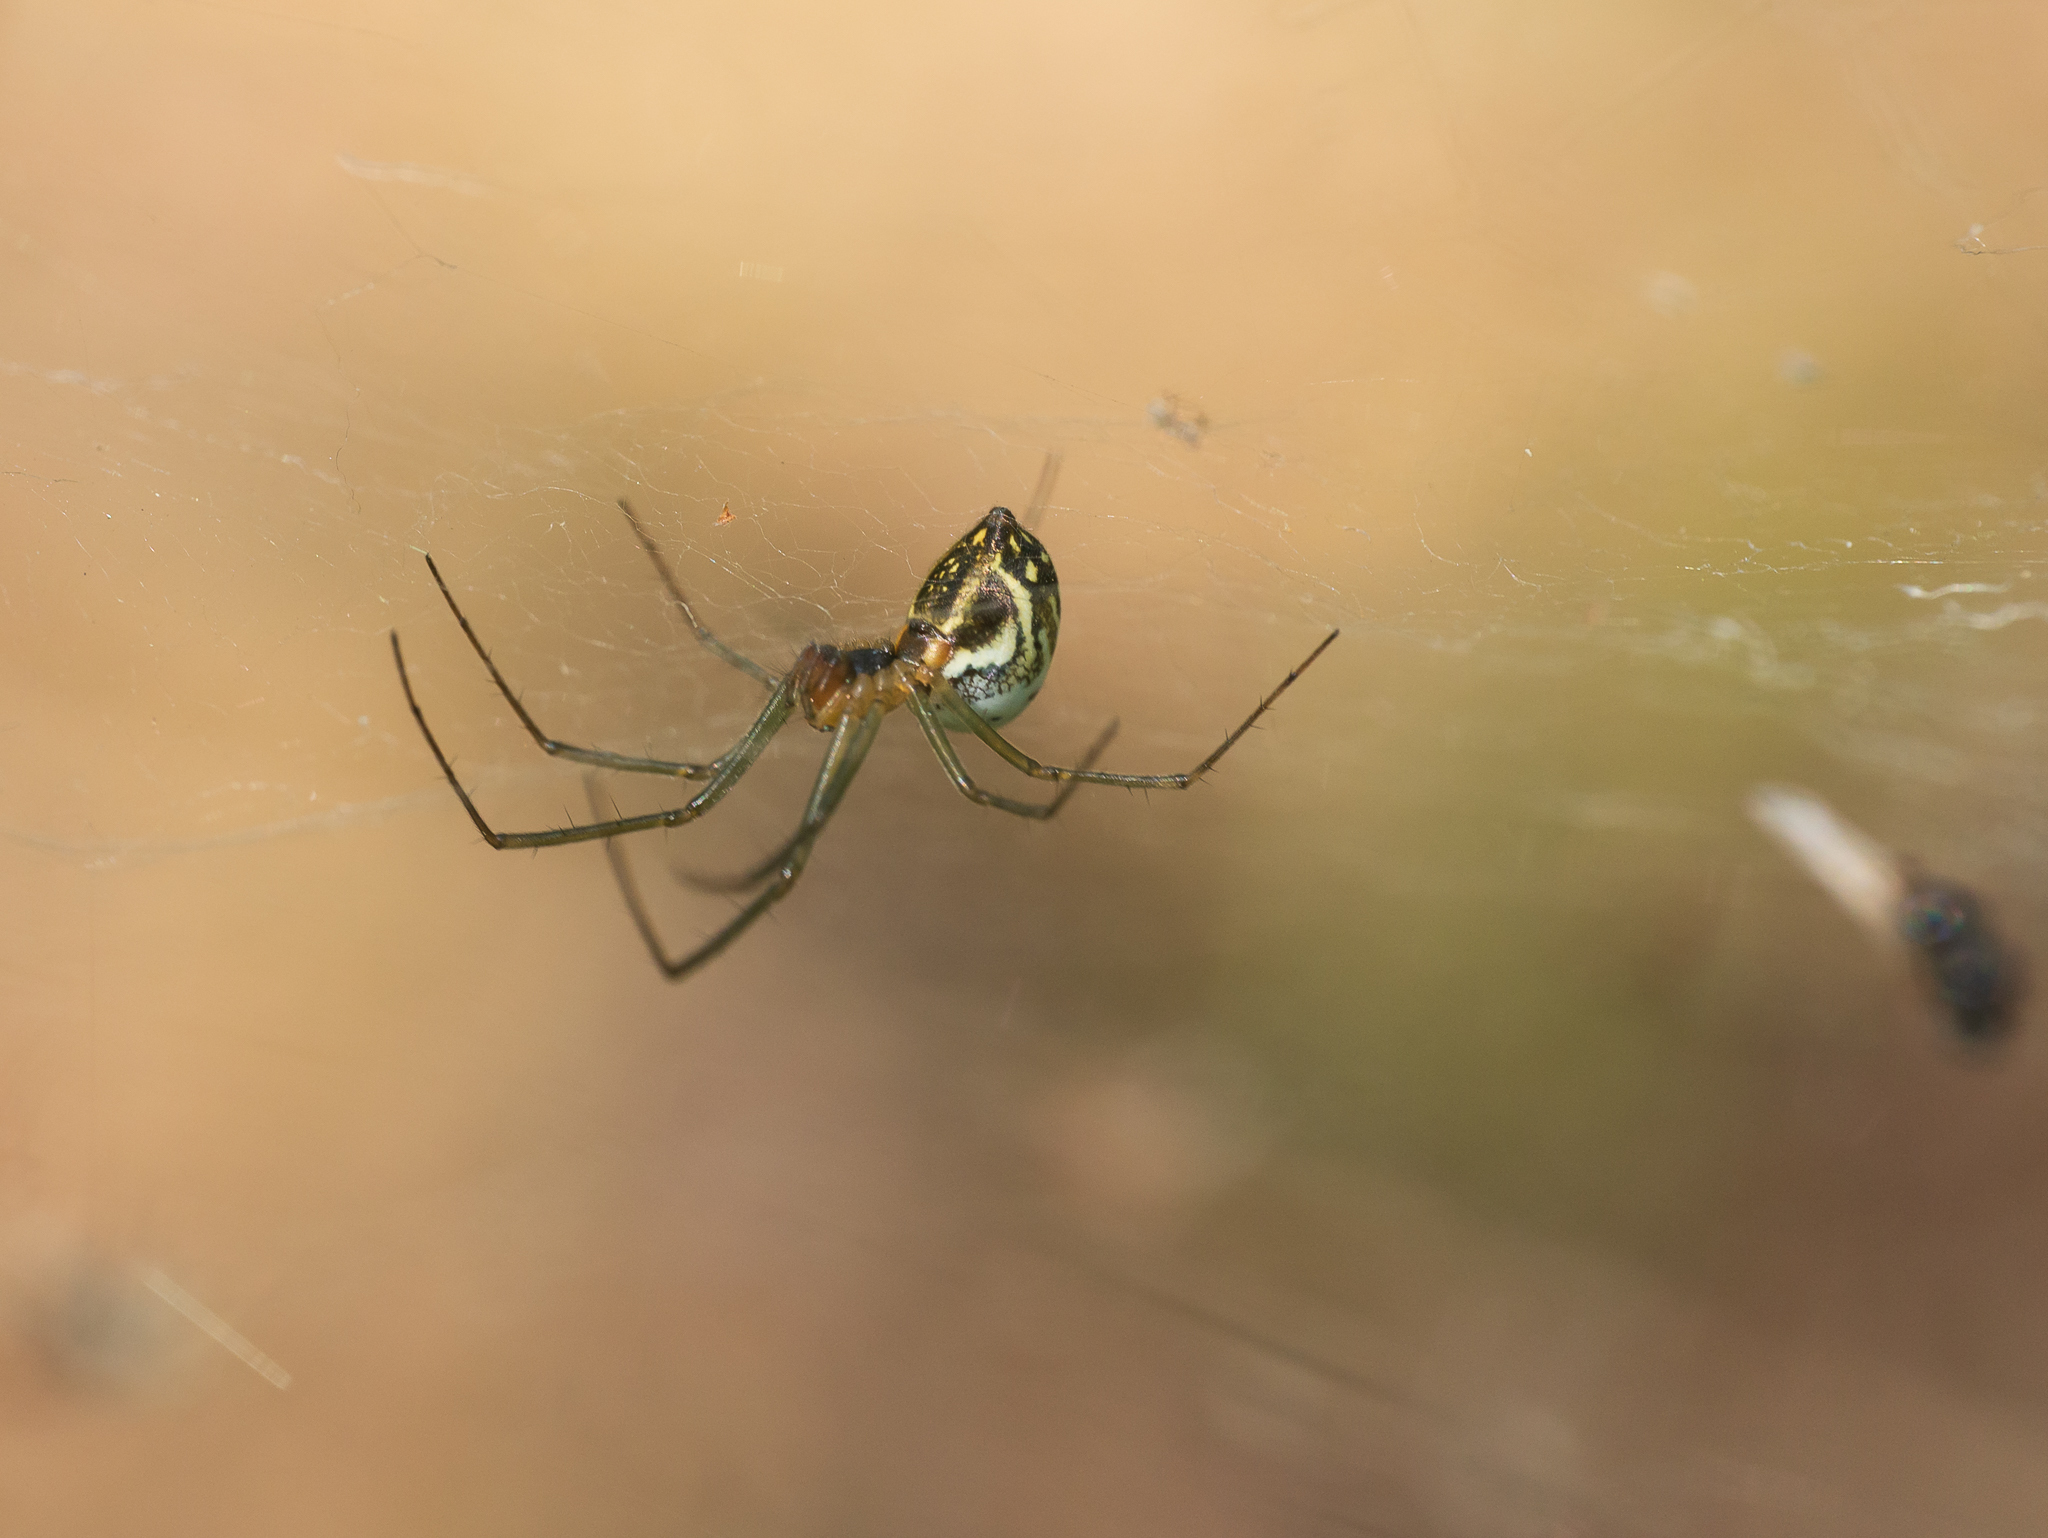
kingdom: Animalia
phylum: Arthropoda
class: Arachnida
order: Araneae
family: Linyphiidae
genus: Neriene
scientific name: Neriene emphana
